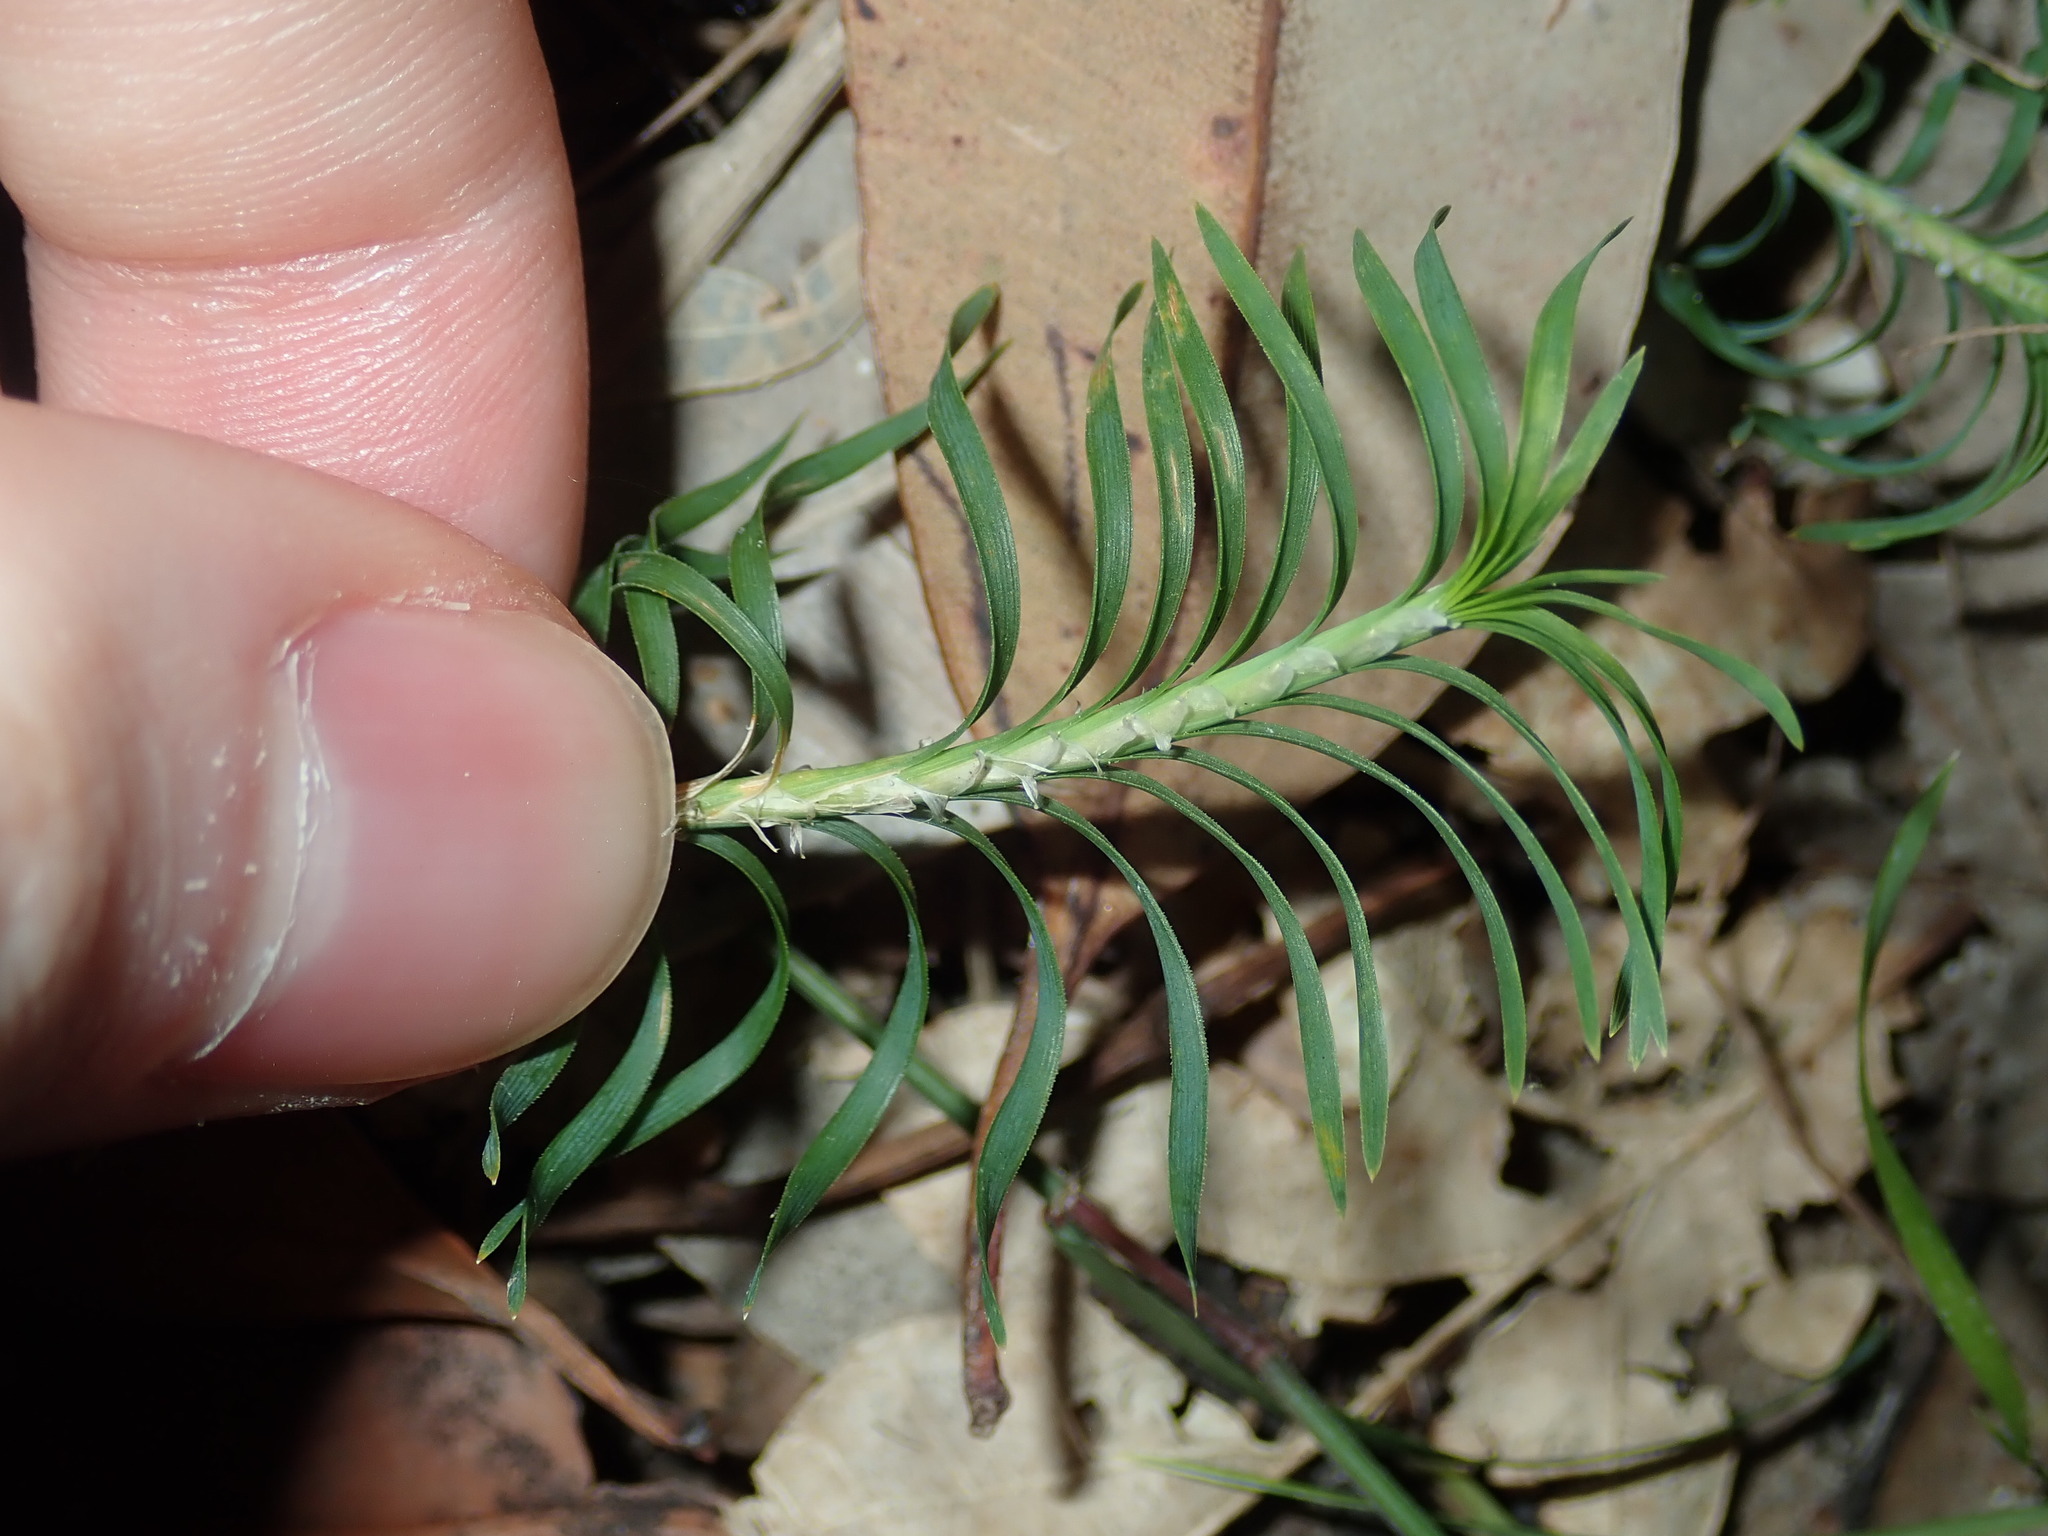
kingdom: Plantae
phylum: Tracheophyta
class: Liliopsida
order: Asparagales
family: Asparagaceae
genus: Lomandra
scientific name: Lomandra obliqua
